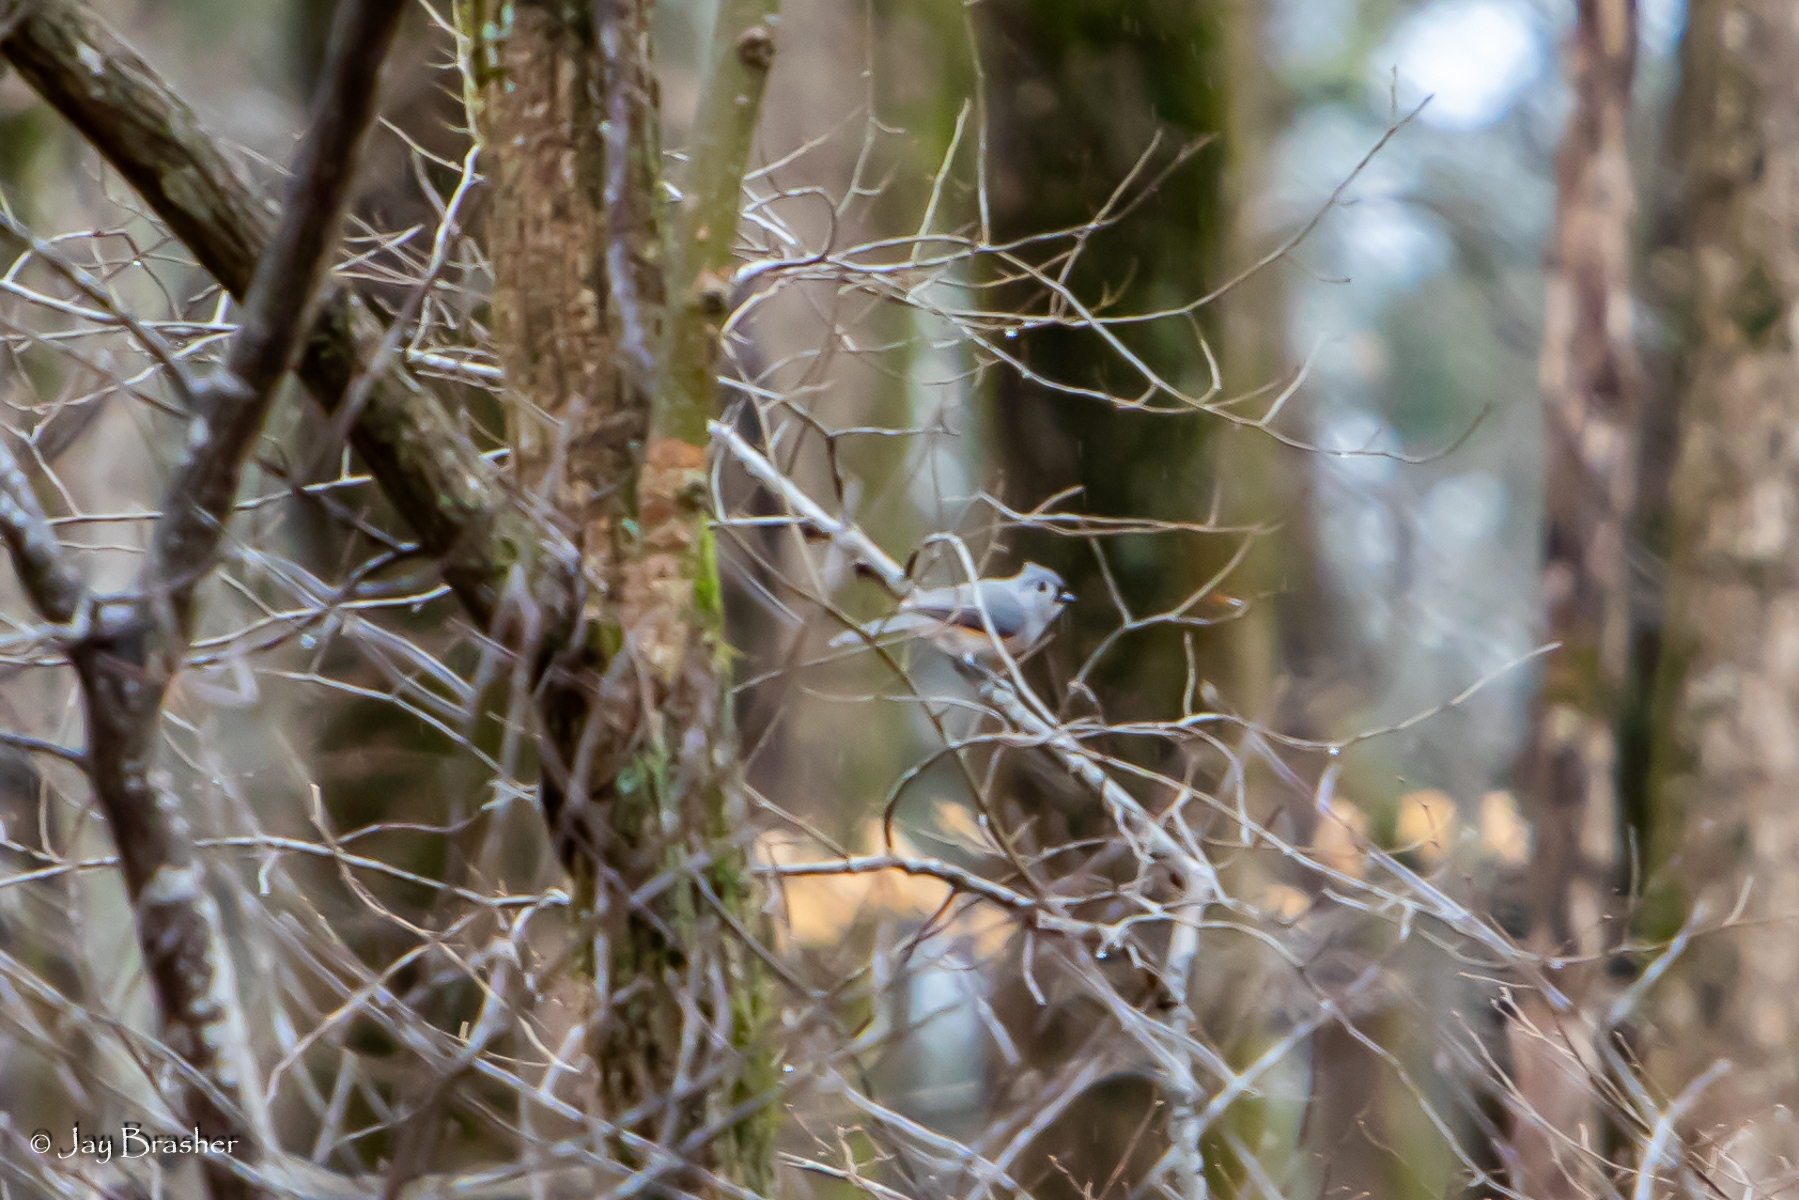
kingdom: Animalia
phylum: Chordata
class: Aves
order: Passeriformes
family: Paridae
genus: Baeolophus
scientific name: Baeolophus bicolor
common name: Tufted titmouse
